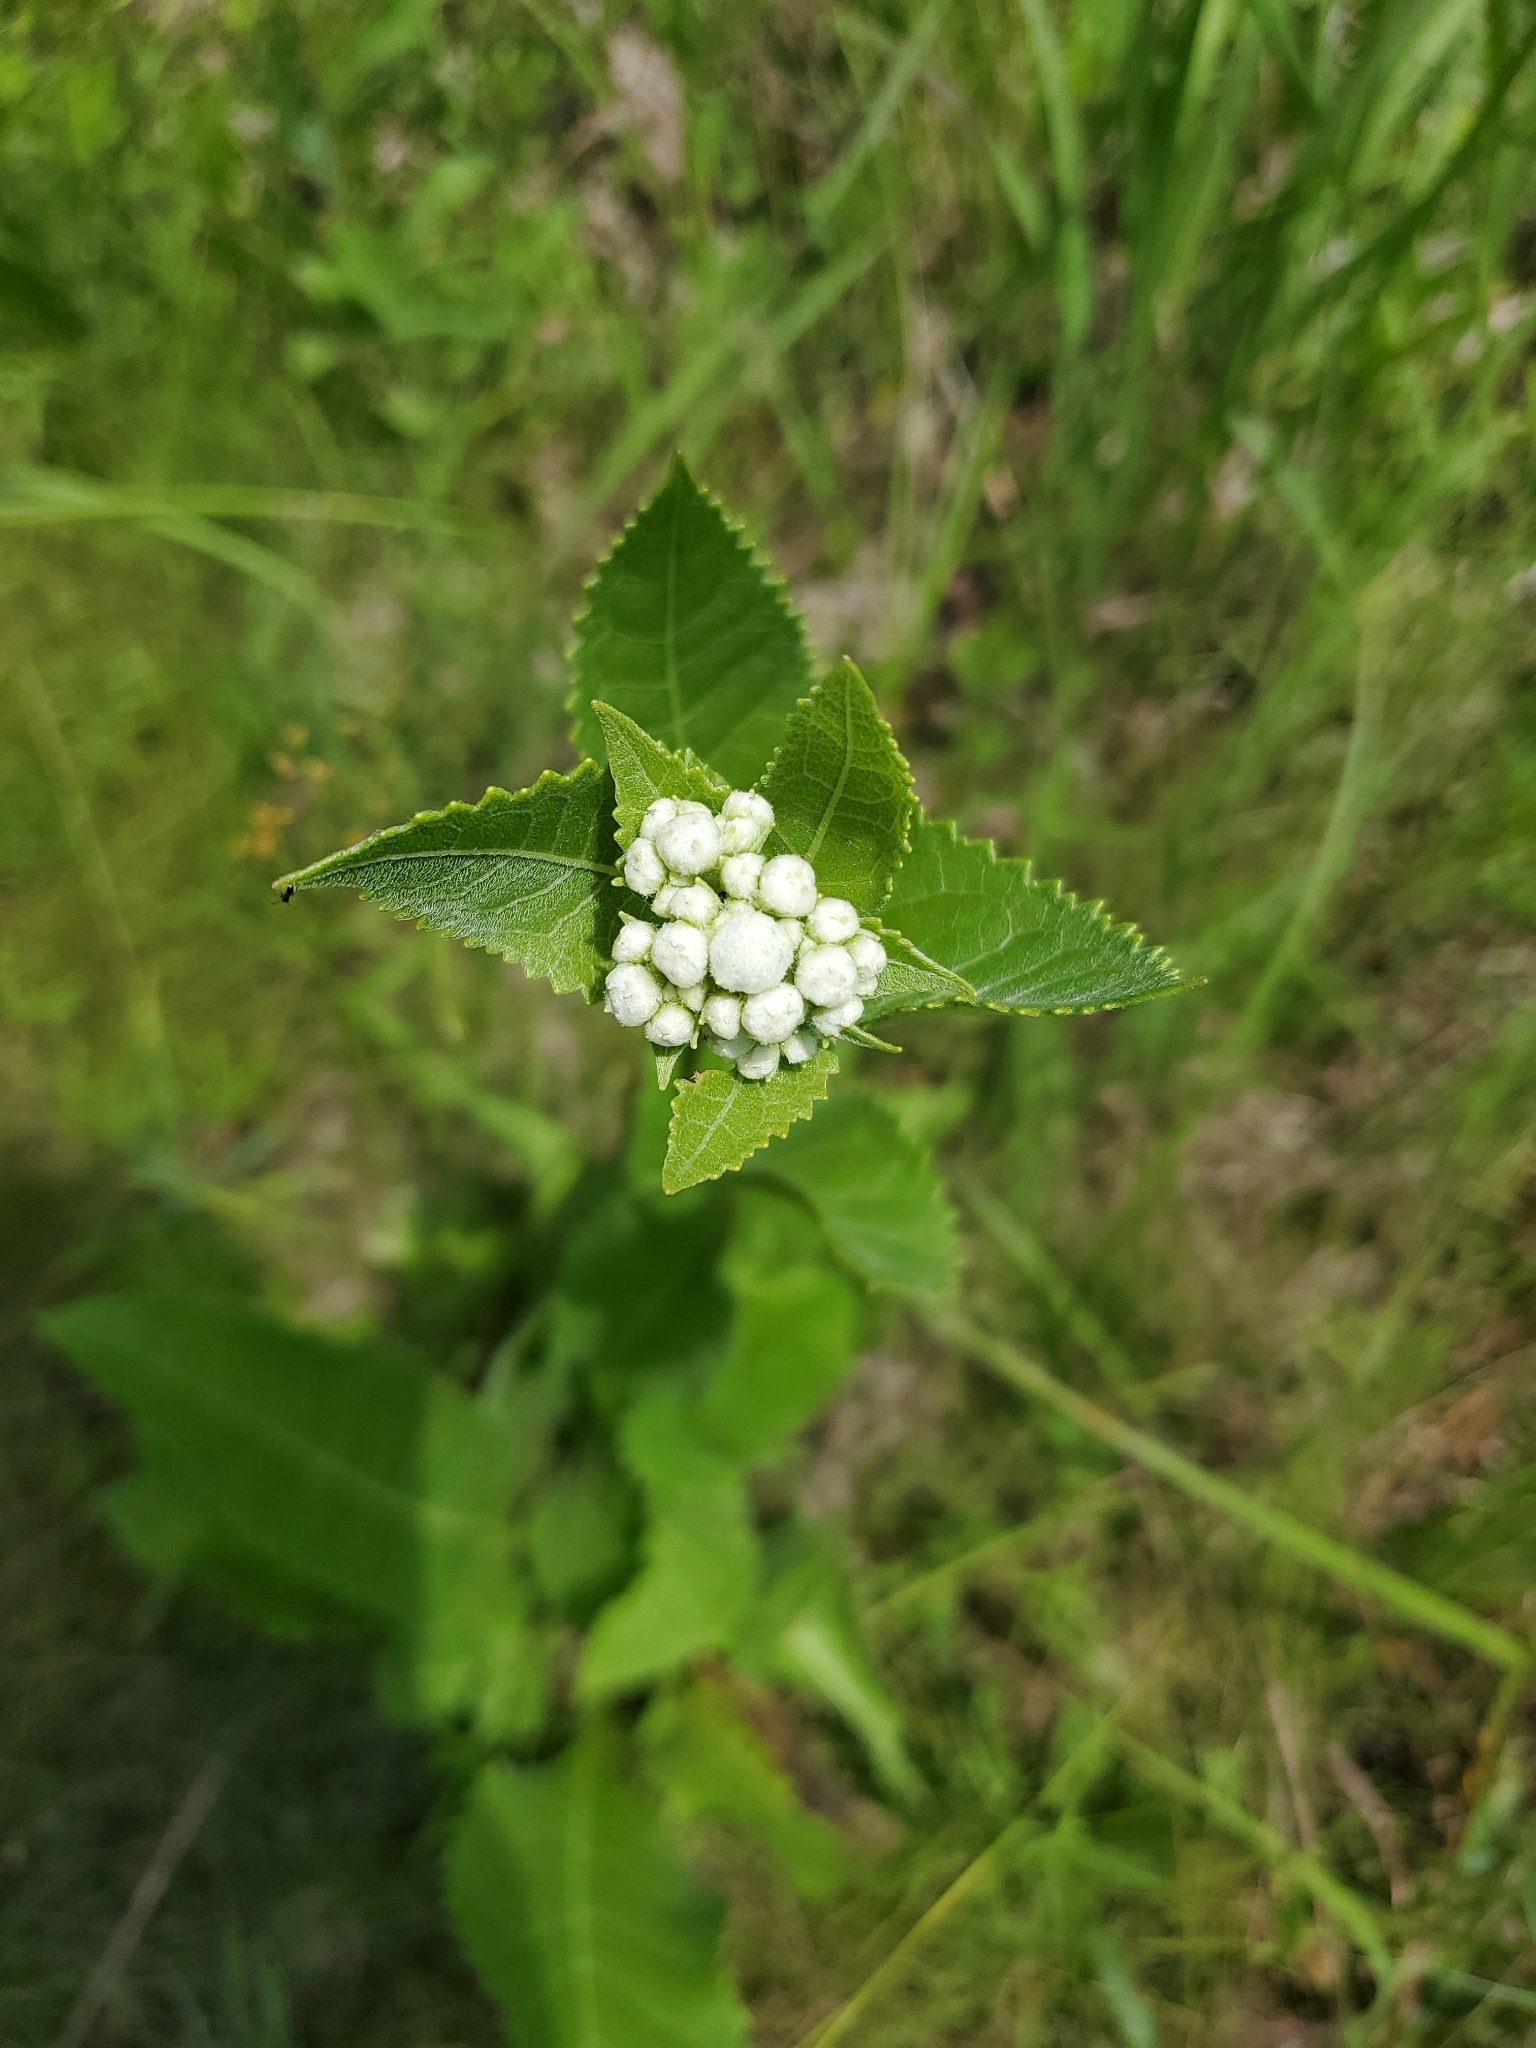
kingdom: Plantae
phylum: Tracheophyta
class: Magnoliopsida
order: Asterales
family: Asteraceae
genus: Parthenium
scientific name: Parthenium integrifolium
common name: American feverfew
